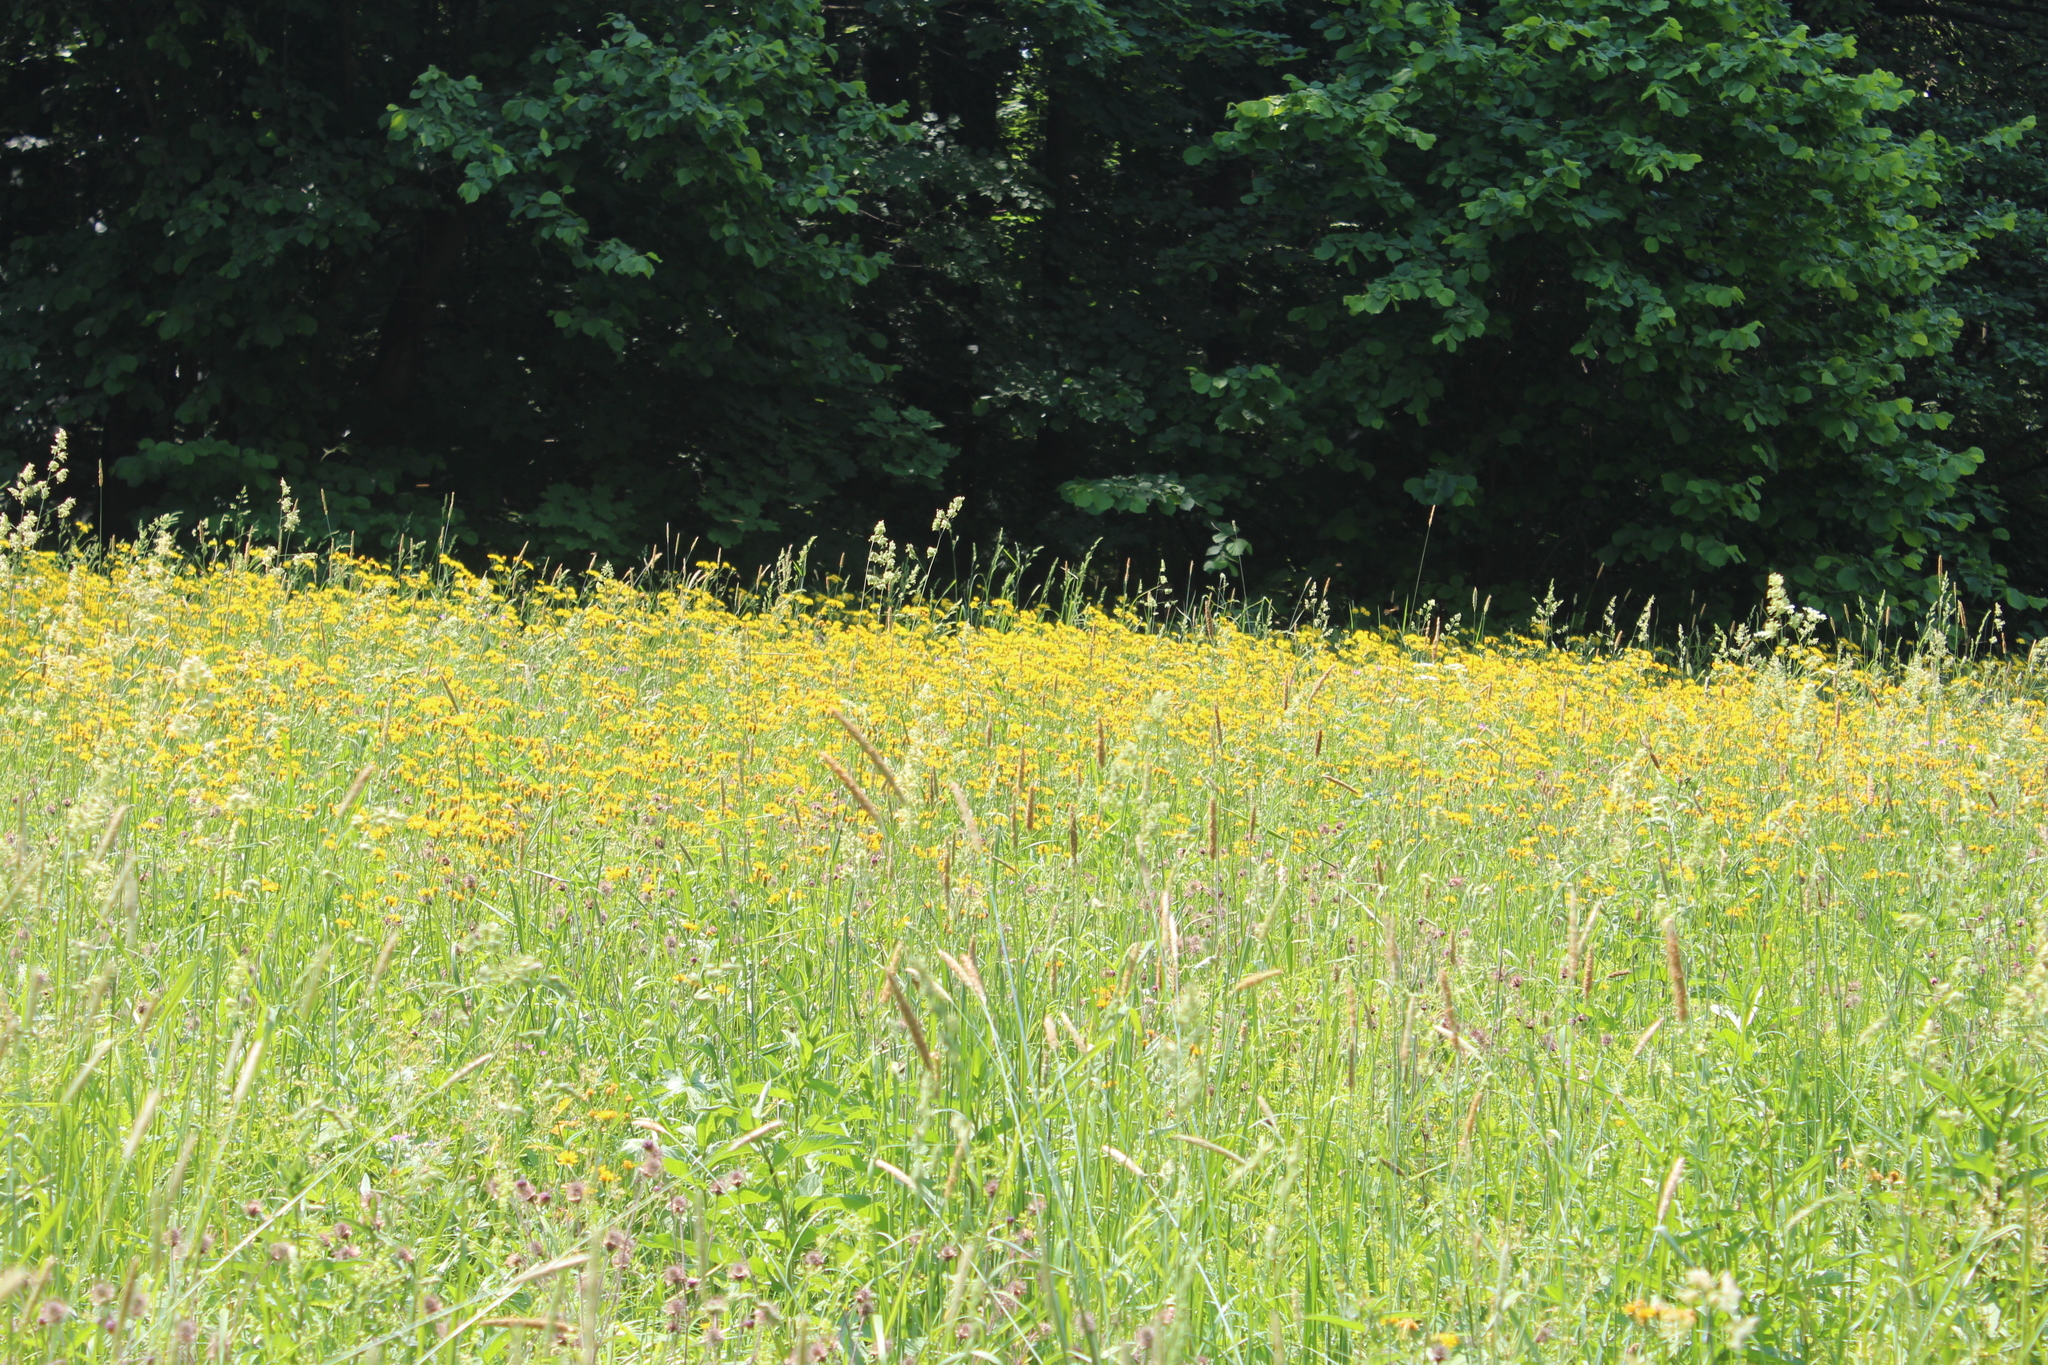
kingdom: Plantae
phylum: Tracheophyta
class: Magnoliopsida
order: Asterales
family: Asteraceae
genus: Crepis
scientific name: Crepis paludosa
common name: Marsh hawk's-beard
